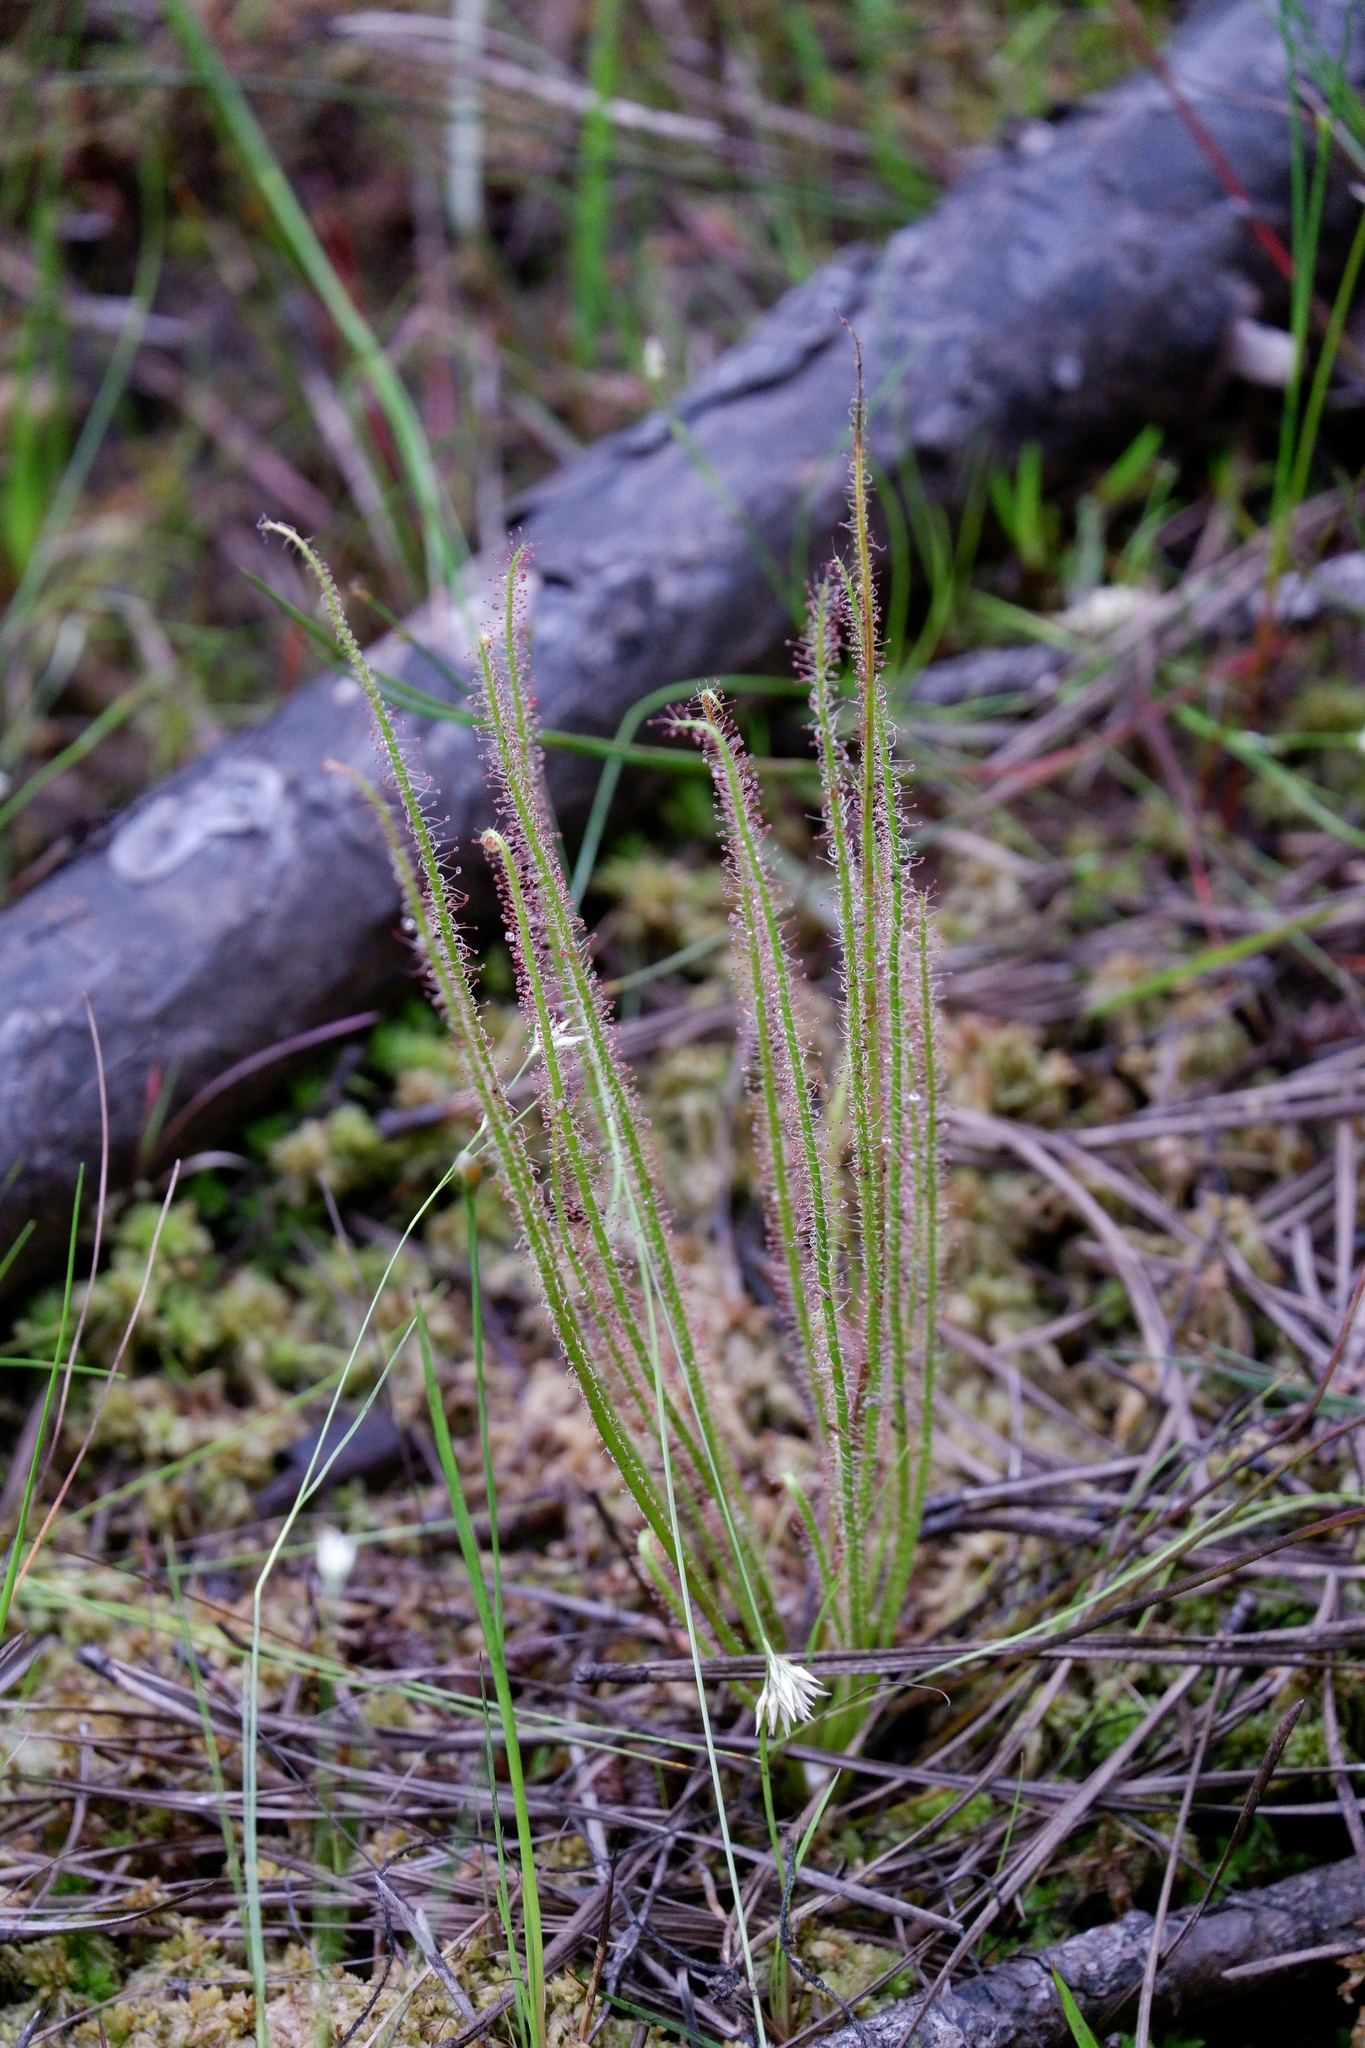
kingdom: Plantae
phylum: Tracheophyta
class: Magnoliopsida
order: Caryophyllales
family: Droseraceae
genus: Drosera
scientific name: Drosera filiformis
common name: Dew-thread
